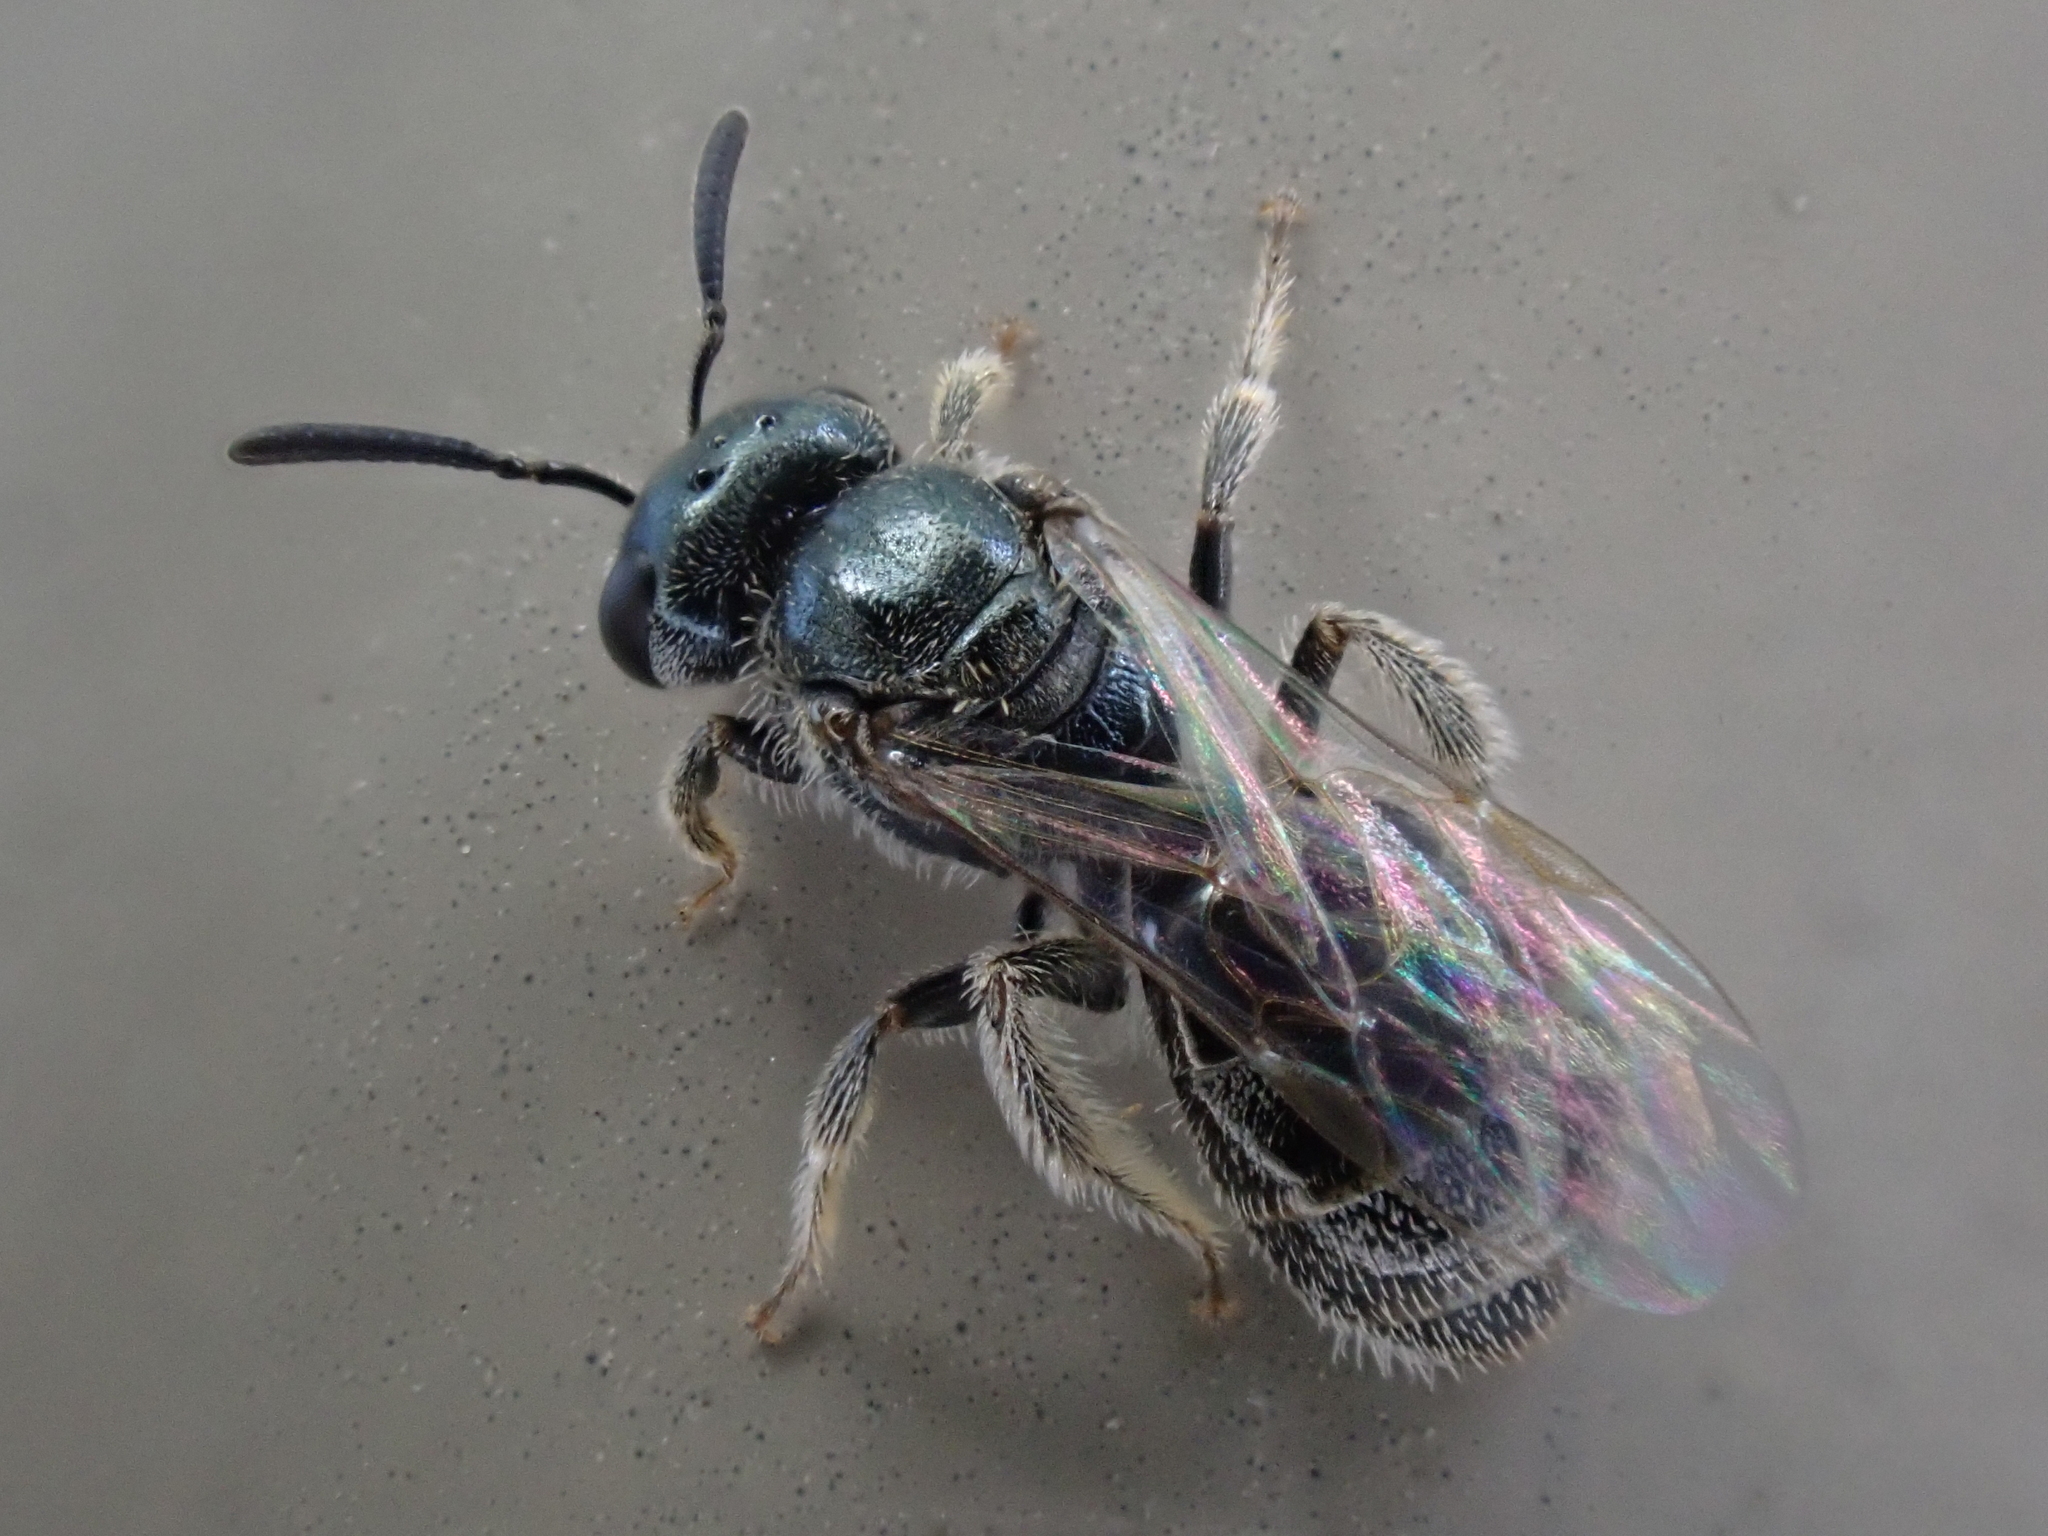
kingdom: Animalia
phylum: Arthropoda
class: Insecta
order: Hymenoptera
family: Halictidae
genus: Lasioglossum
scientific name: Lasioglossum imitatum
